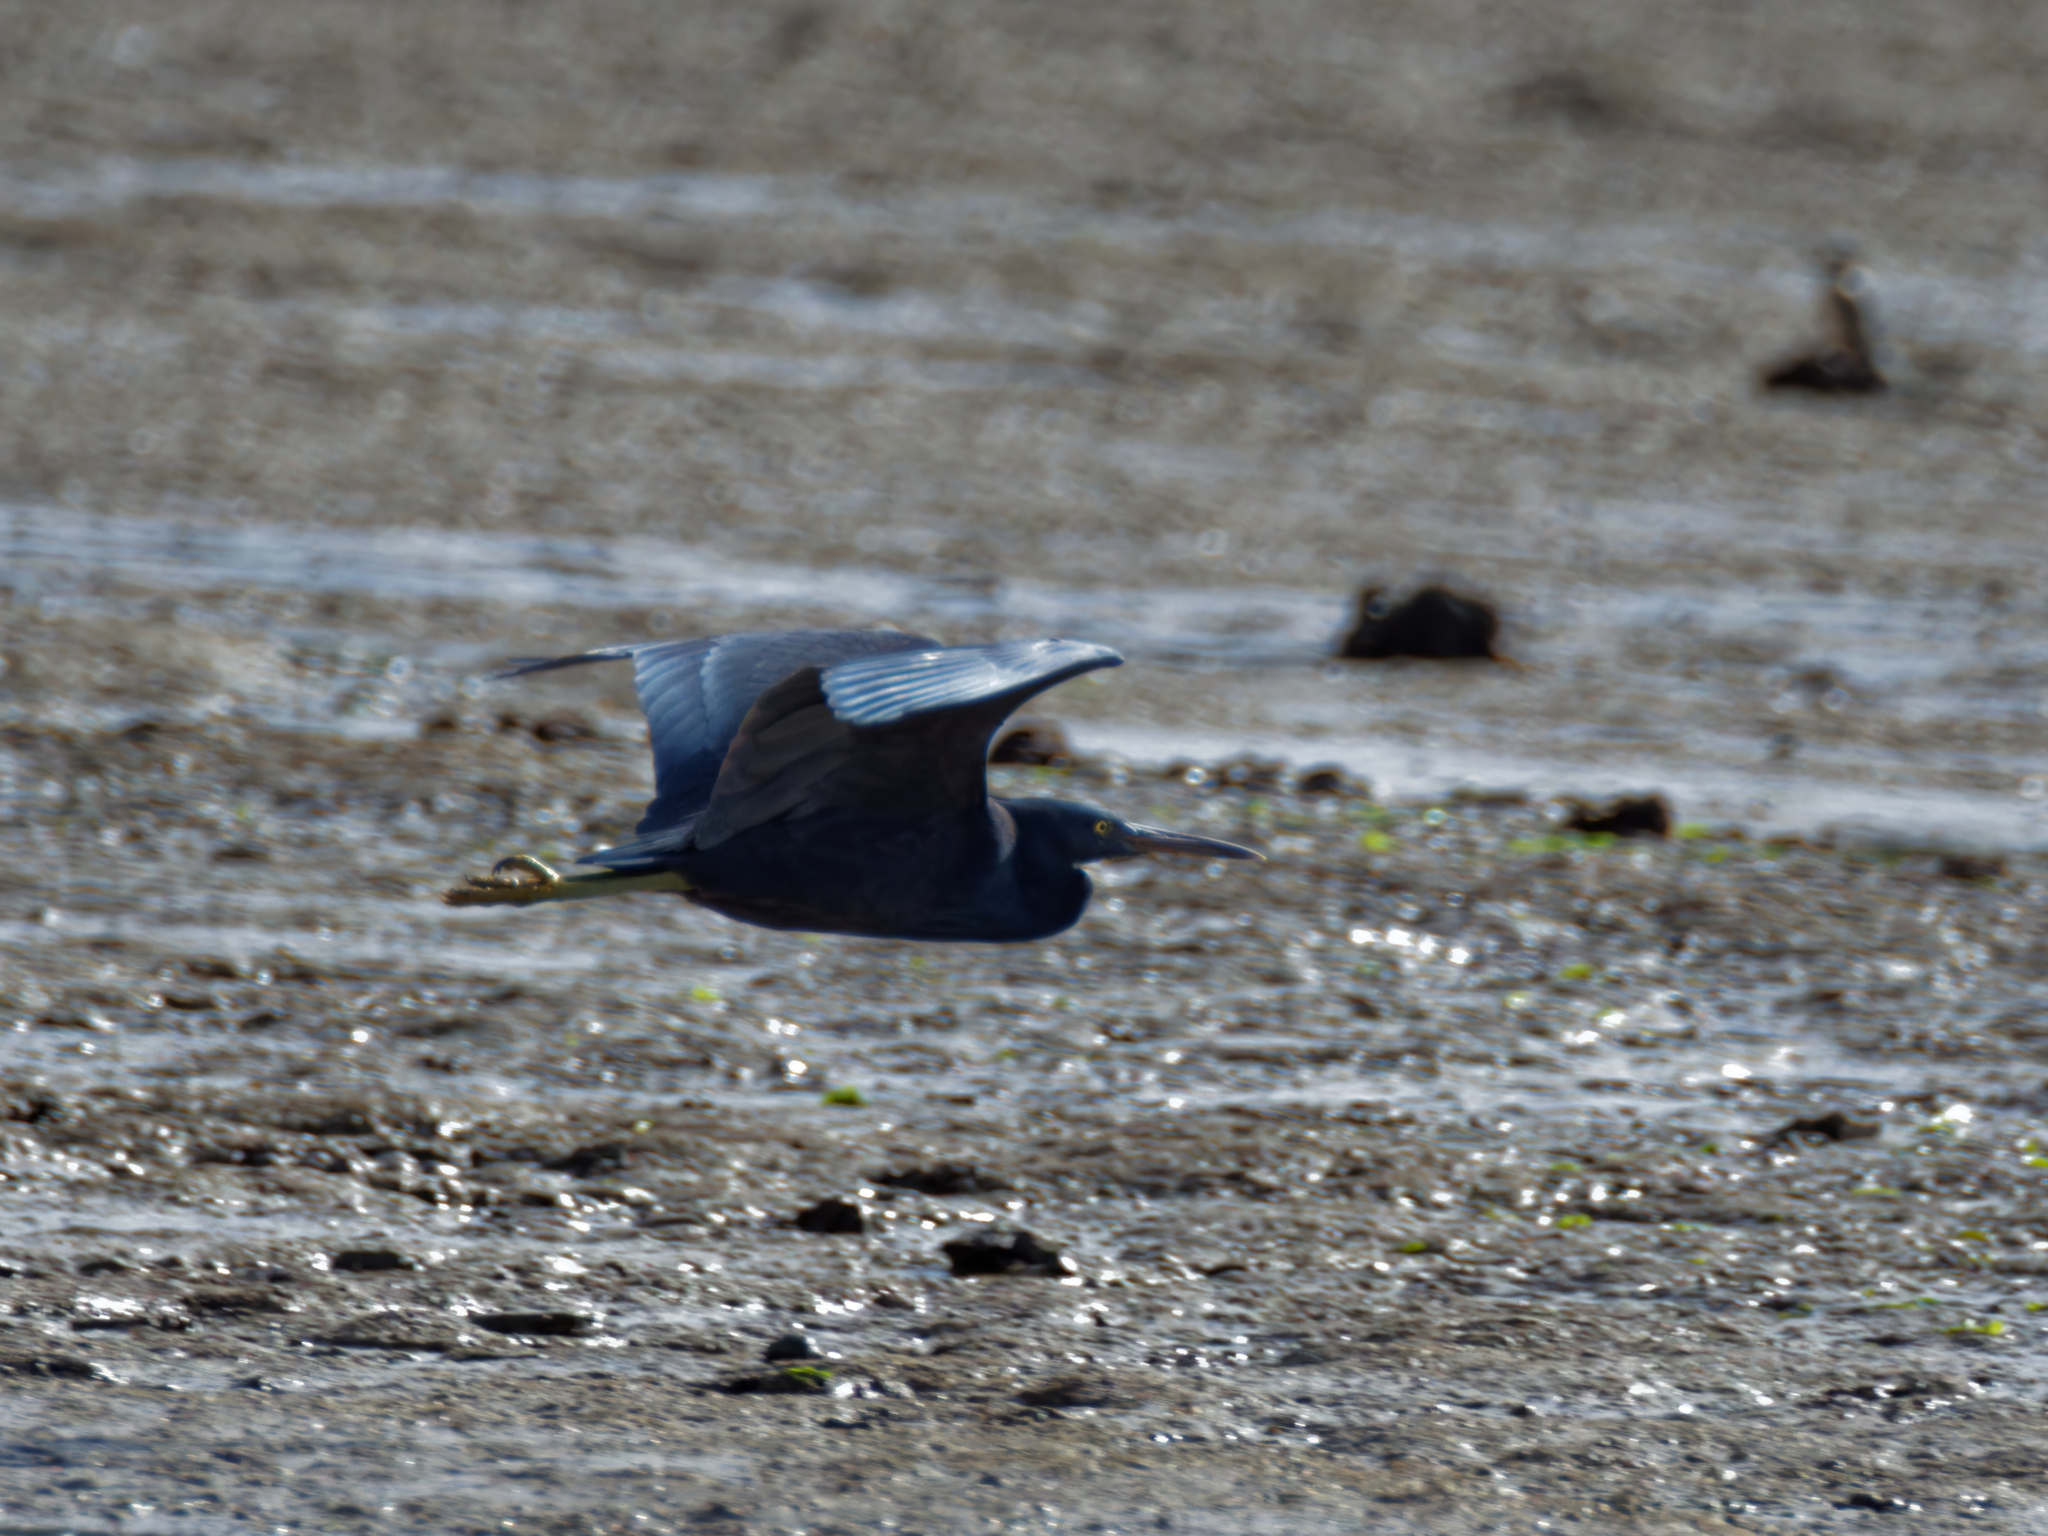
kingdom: Animalia
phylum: Chordata
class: Aves
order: Pelecaniformes
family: Ardeidae
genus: Egretta
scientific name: Egretta sacra
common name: Pacific reef heron
